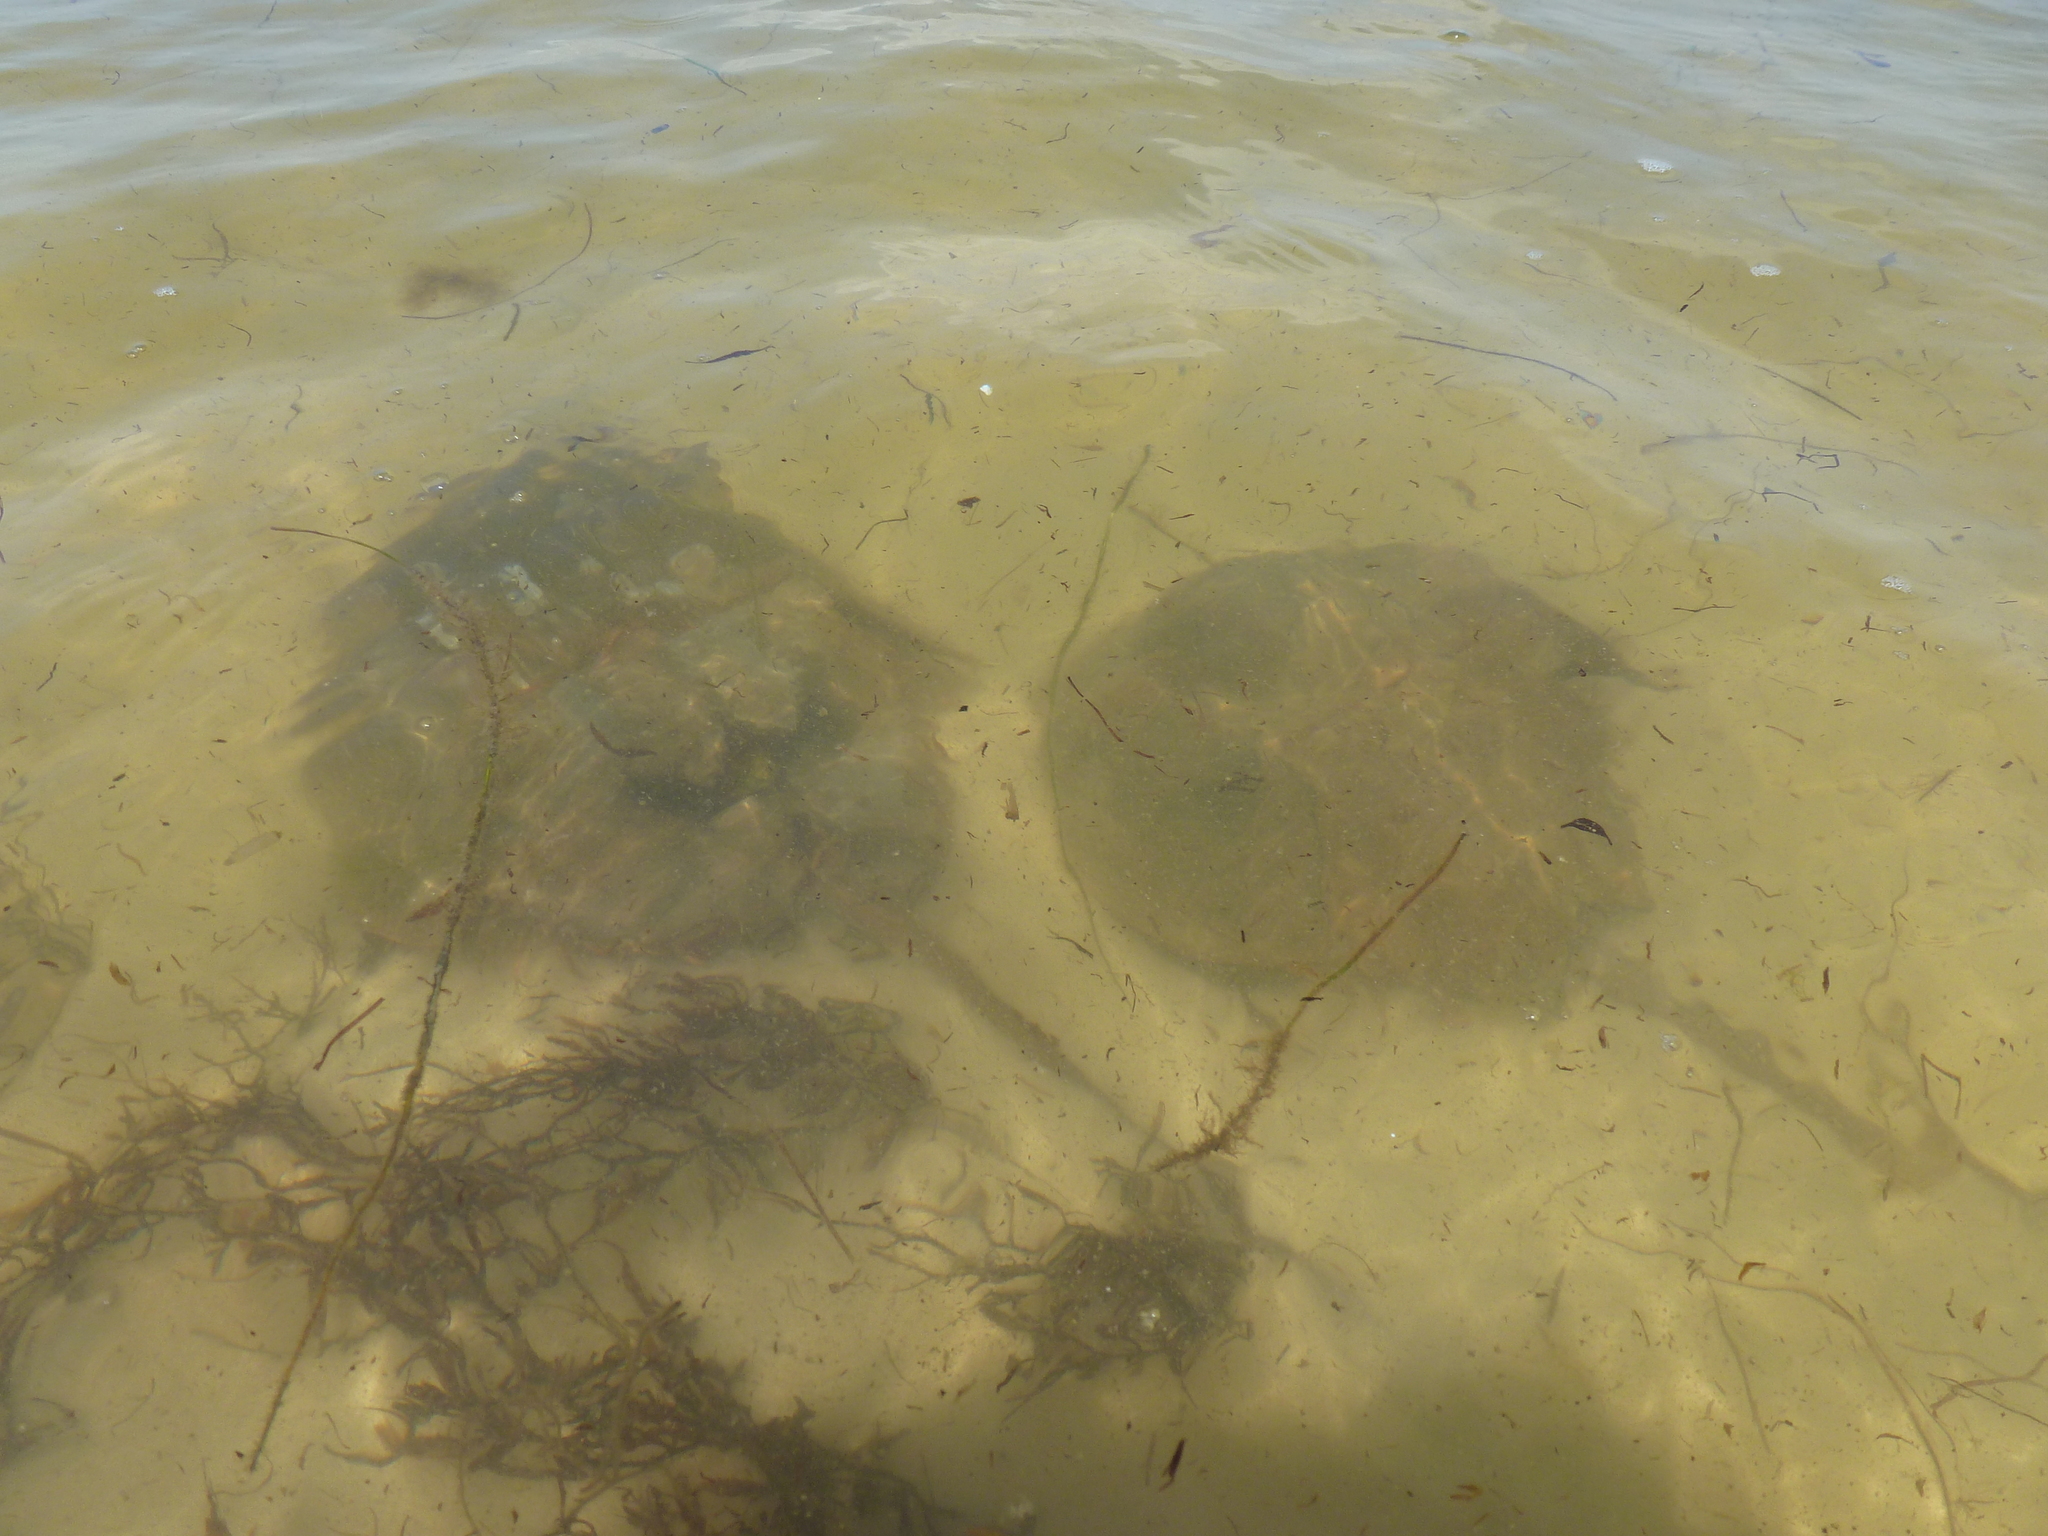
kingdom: Animalia
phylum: Arthropoda
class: Merostomata
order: Xiphosurida
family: Limulidae
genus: Limulus
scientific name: Limulus polyphemus
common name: Horseshoe crab
